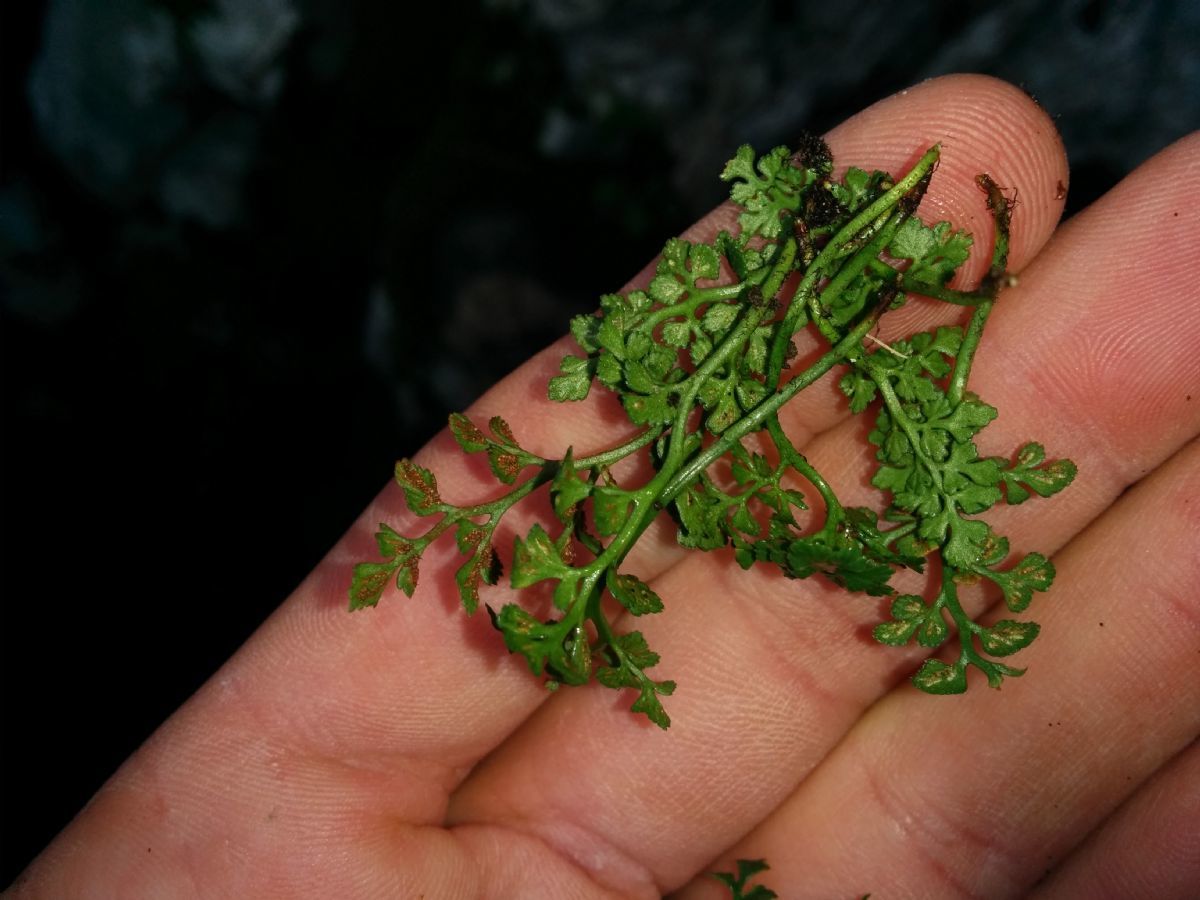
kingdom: Plantae
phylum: Tracheophyta
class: Polypodiopsida
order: Polypodiales
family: Aspleniaceae
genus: Asplenium
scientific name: Asplenium ruta-muraria
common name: Wall-rue
